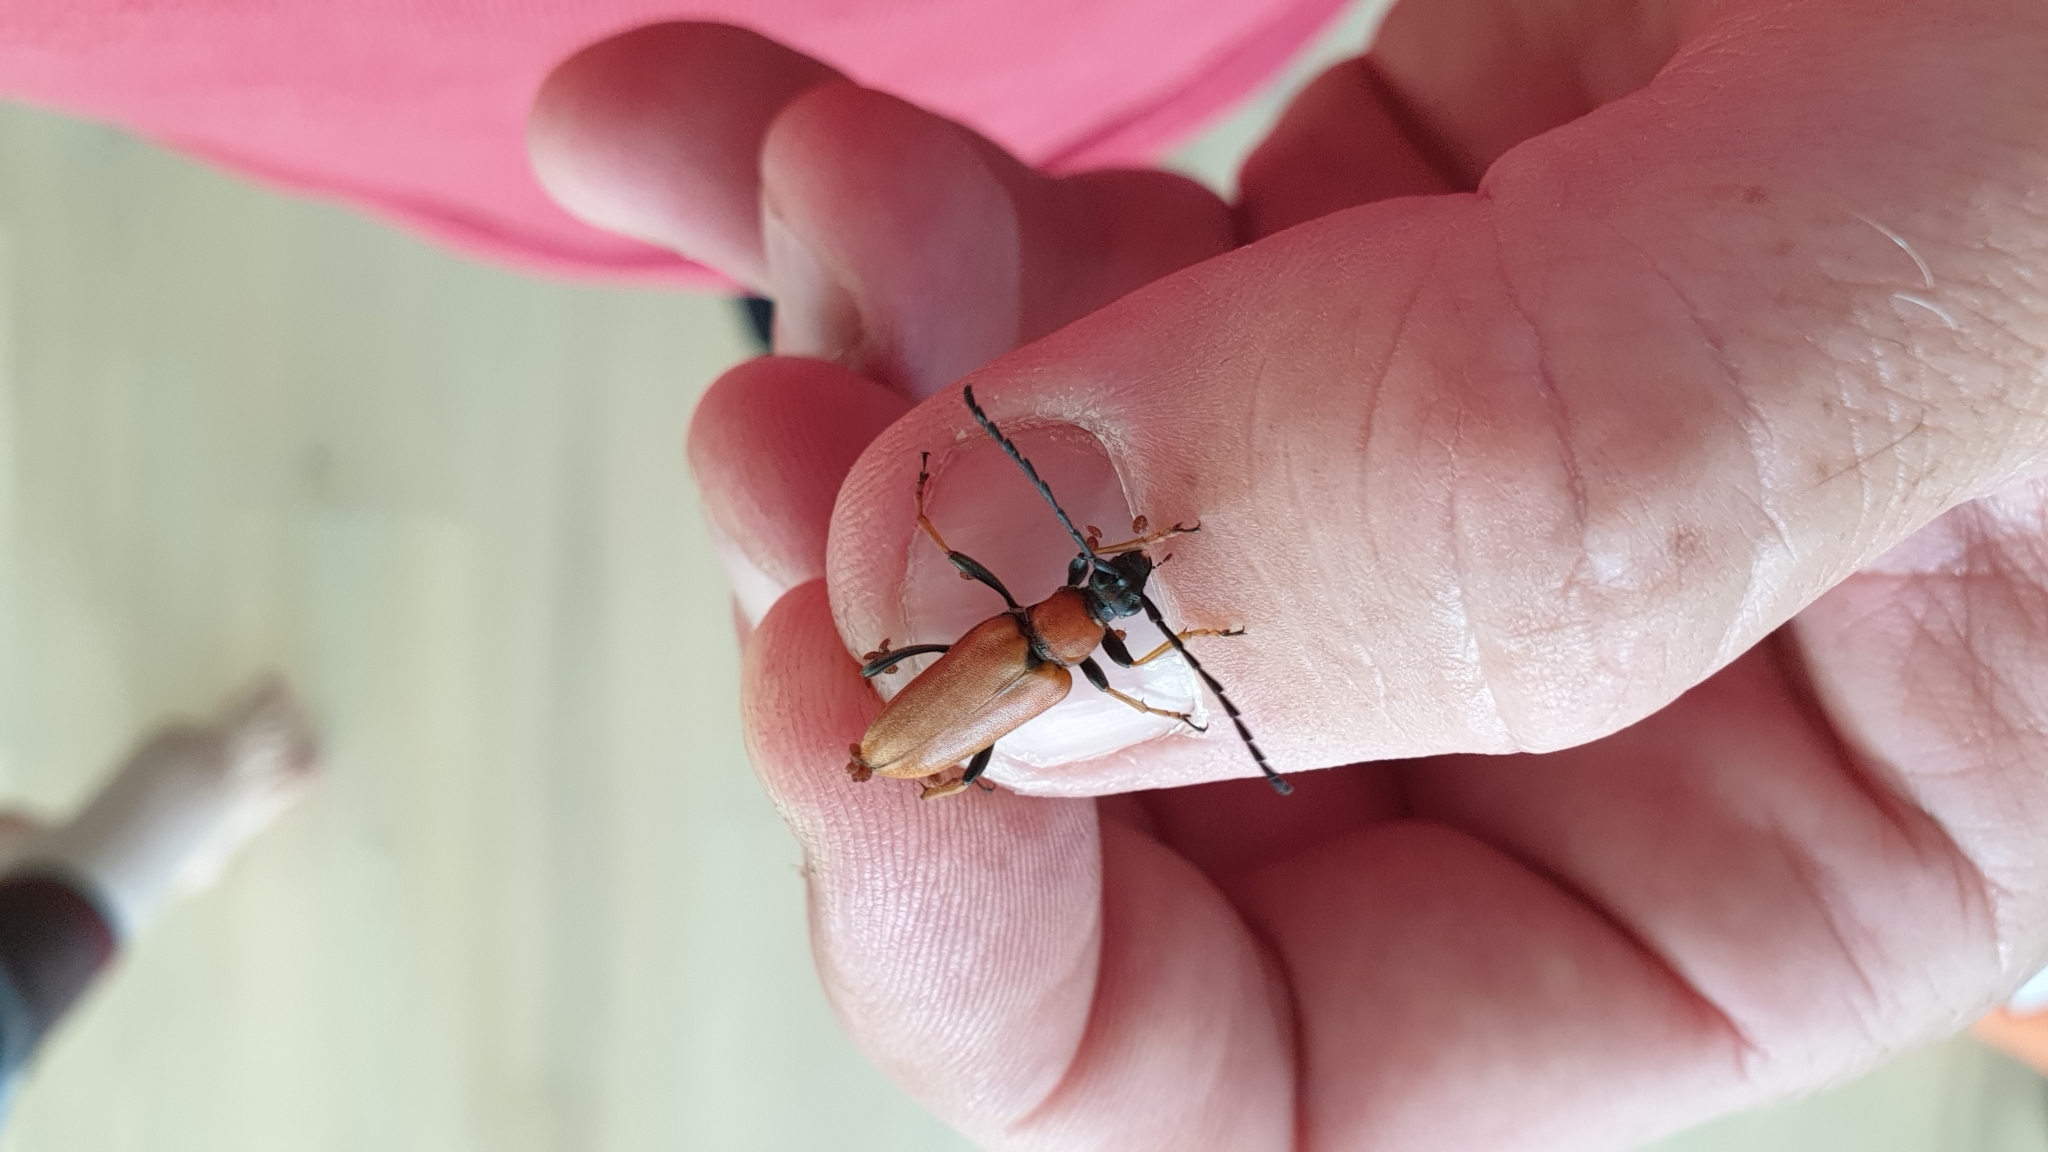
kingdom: Animalia
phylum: Arthropoda
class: Insecta
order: Coleoptera
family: Cerambycidae
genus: Stictoleptura
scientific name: Stictoleptura rubra
